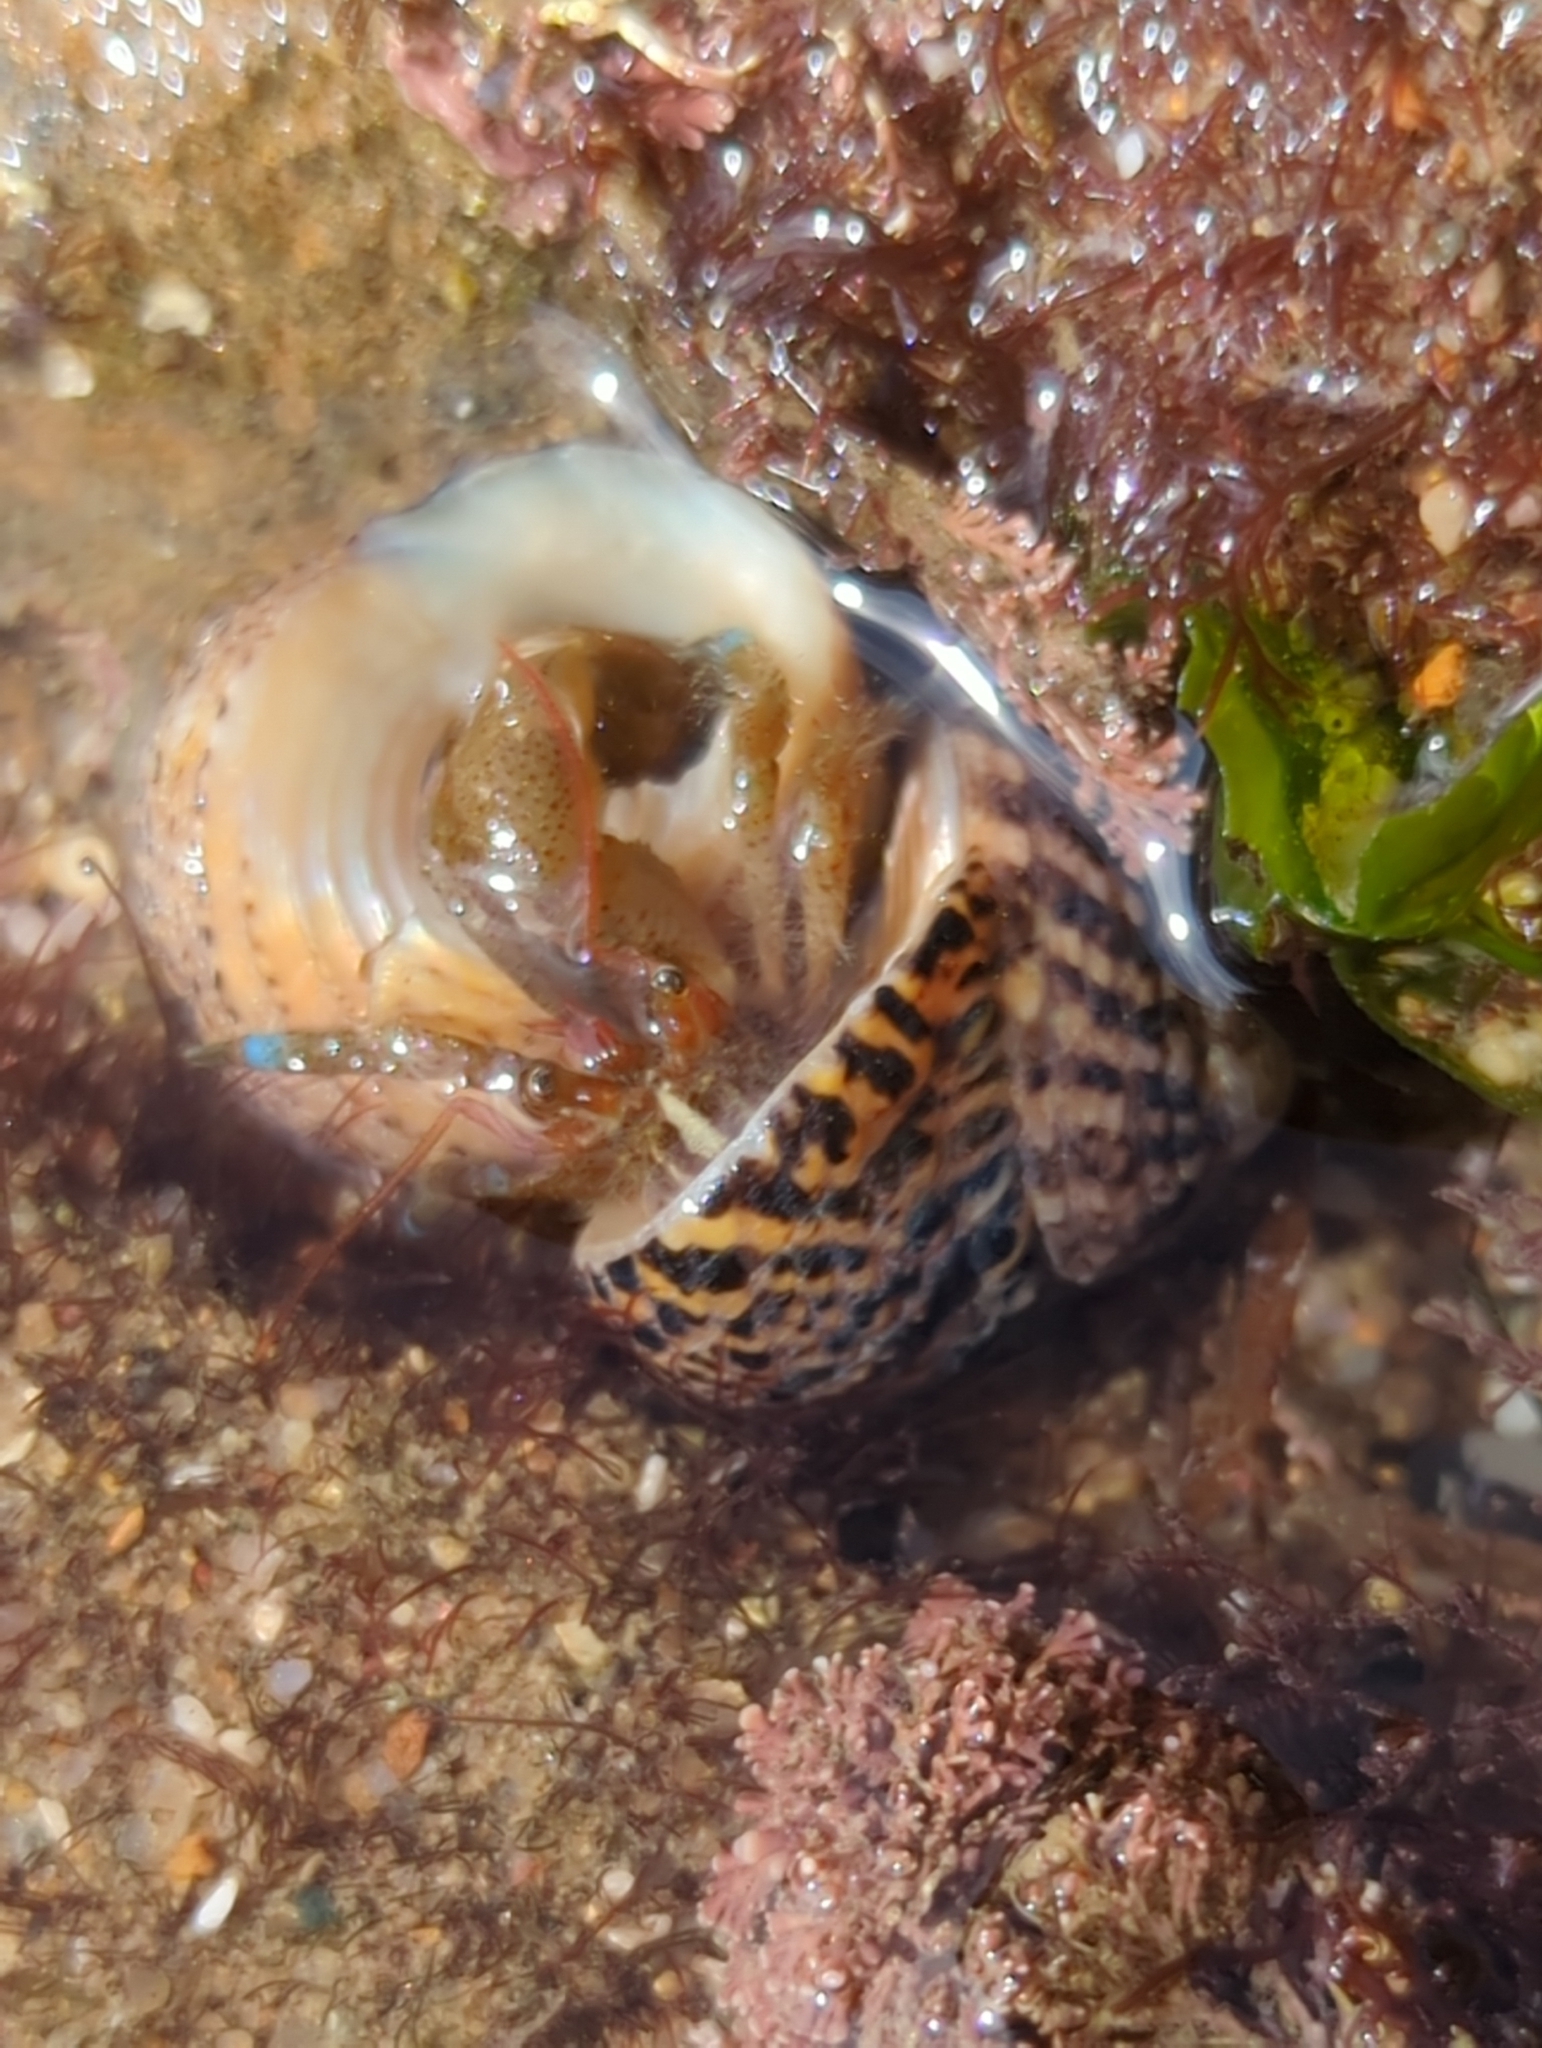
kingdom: Animalia
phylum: Arthropoda
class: Malacostraca
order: Decapoda
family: Paguridae
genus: Pagurus
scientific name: Pagurus samuelis
